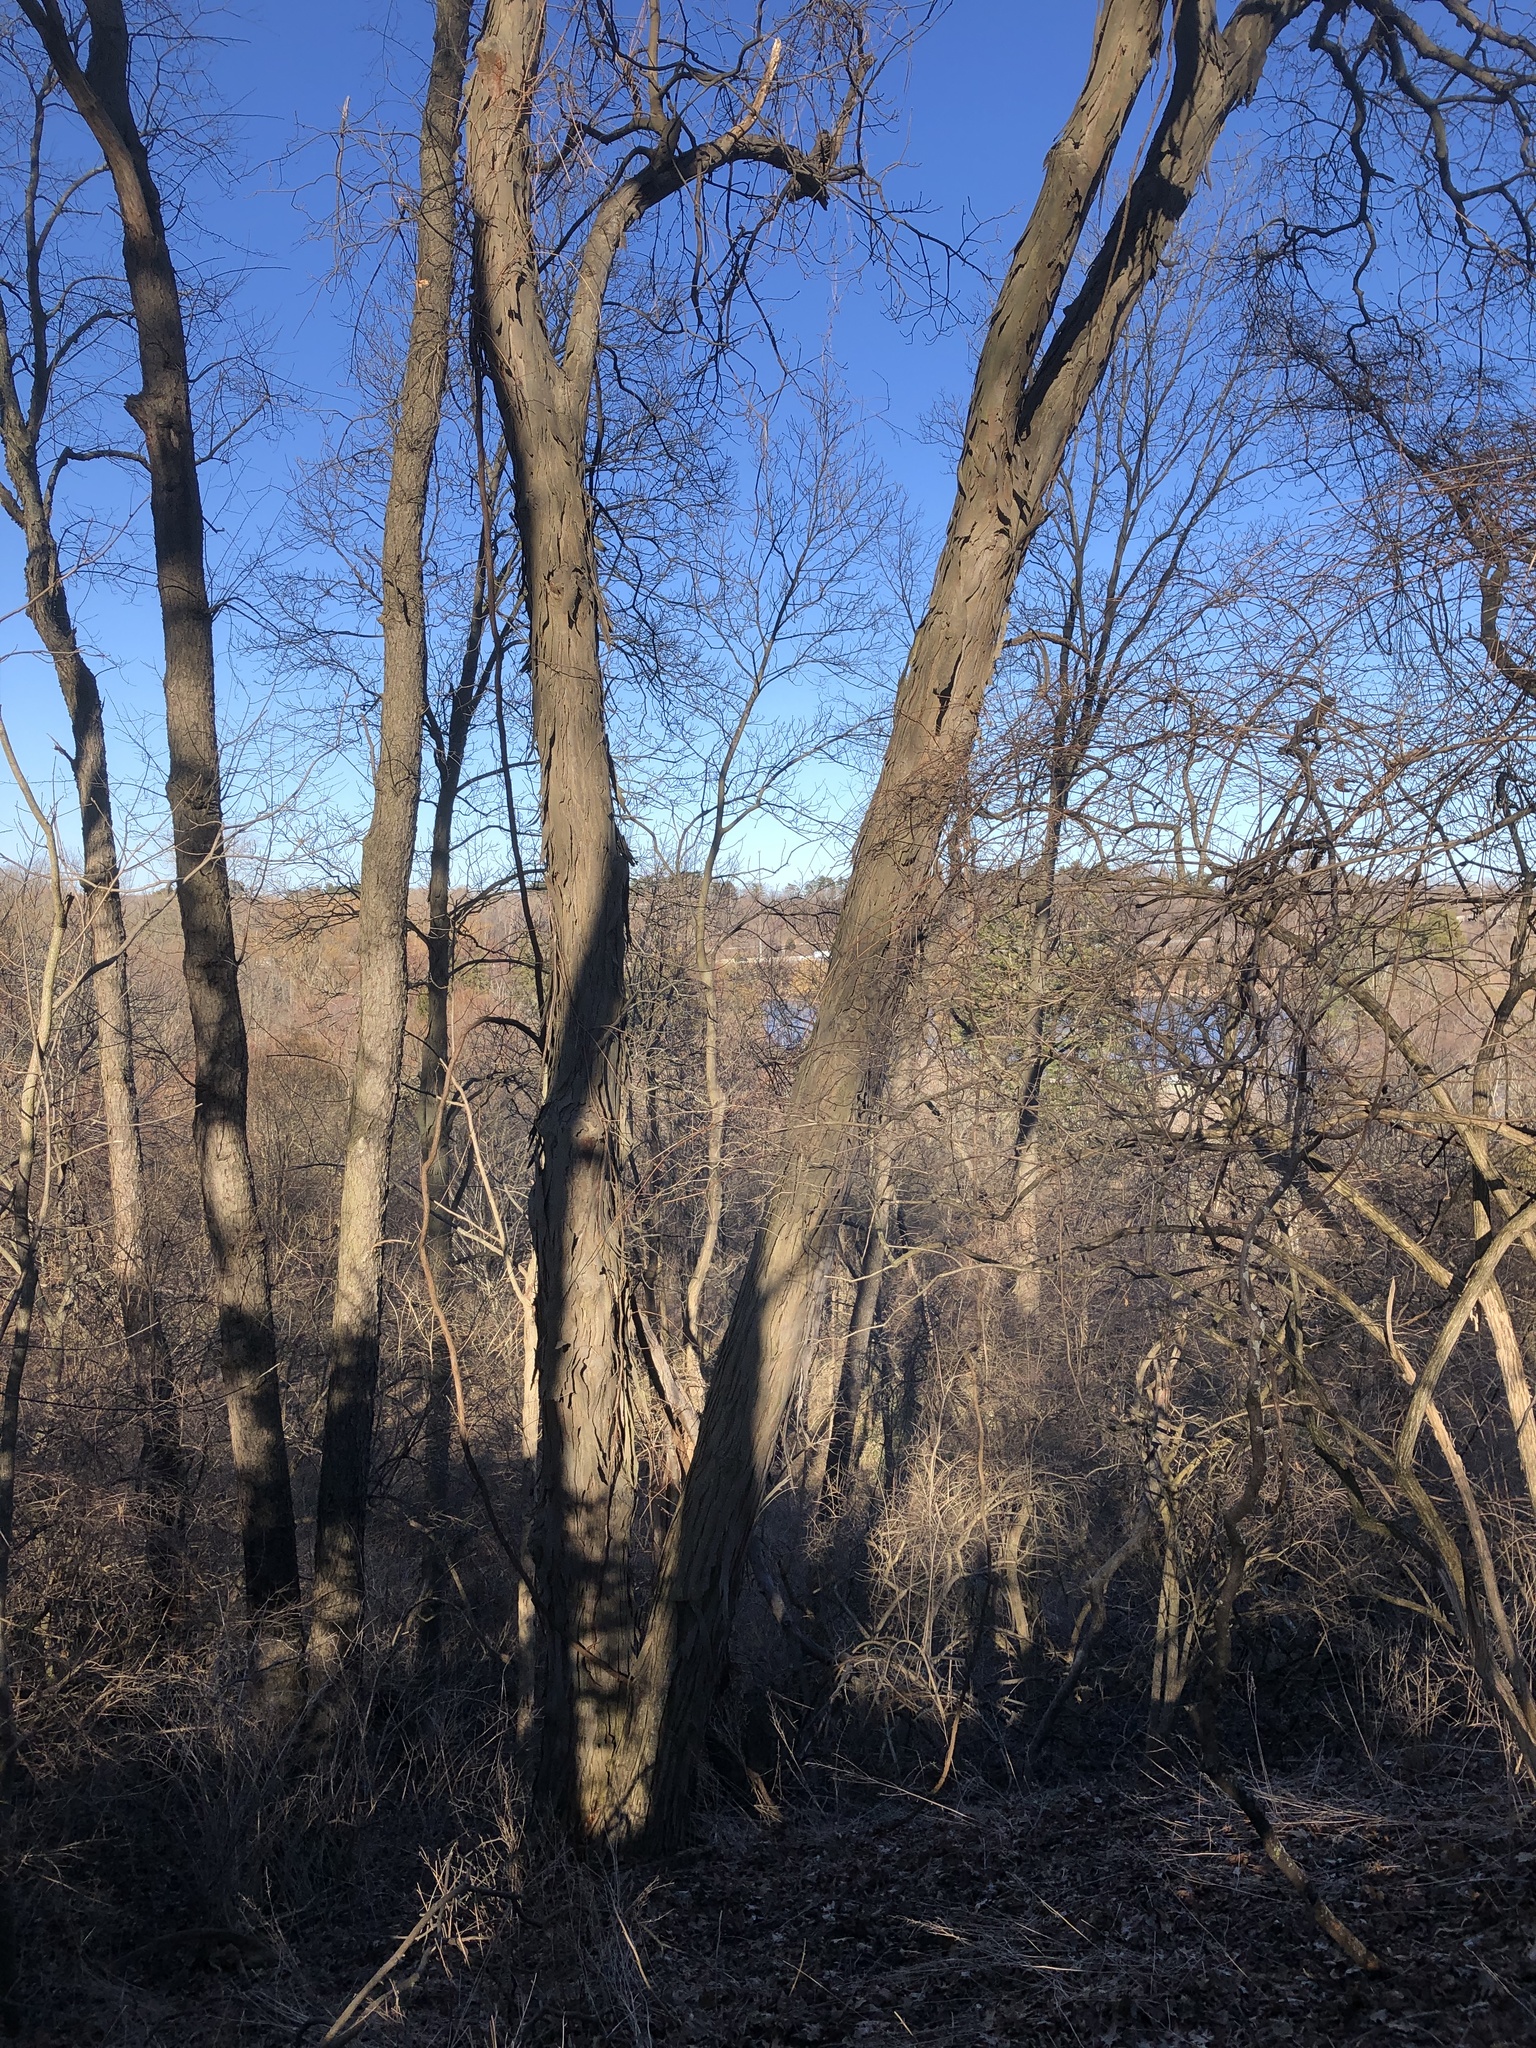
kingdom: Plantae
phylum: Tracheophyta
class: Magnoliopsida
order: Fagales
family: Juglandaceae
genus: Carya
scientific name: Carya ovata
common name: Shagbark hickory
